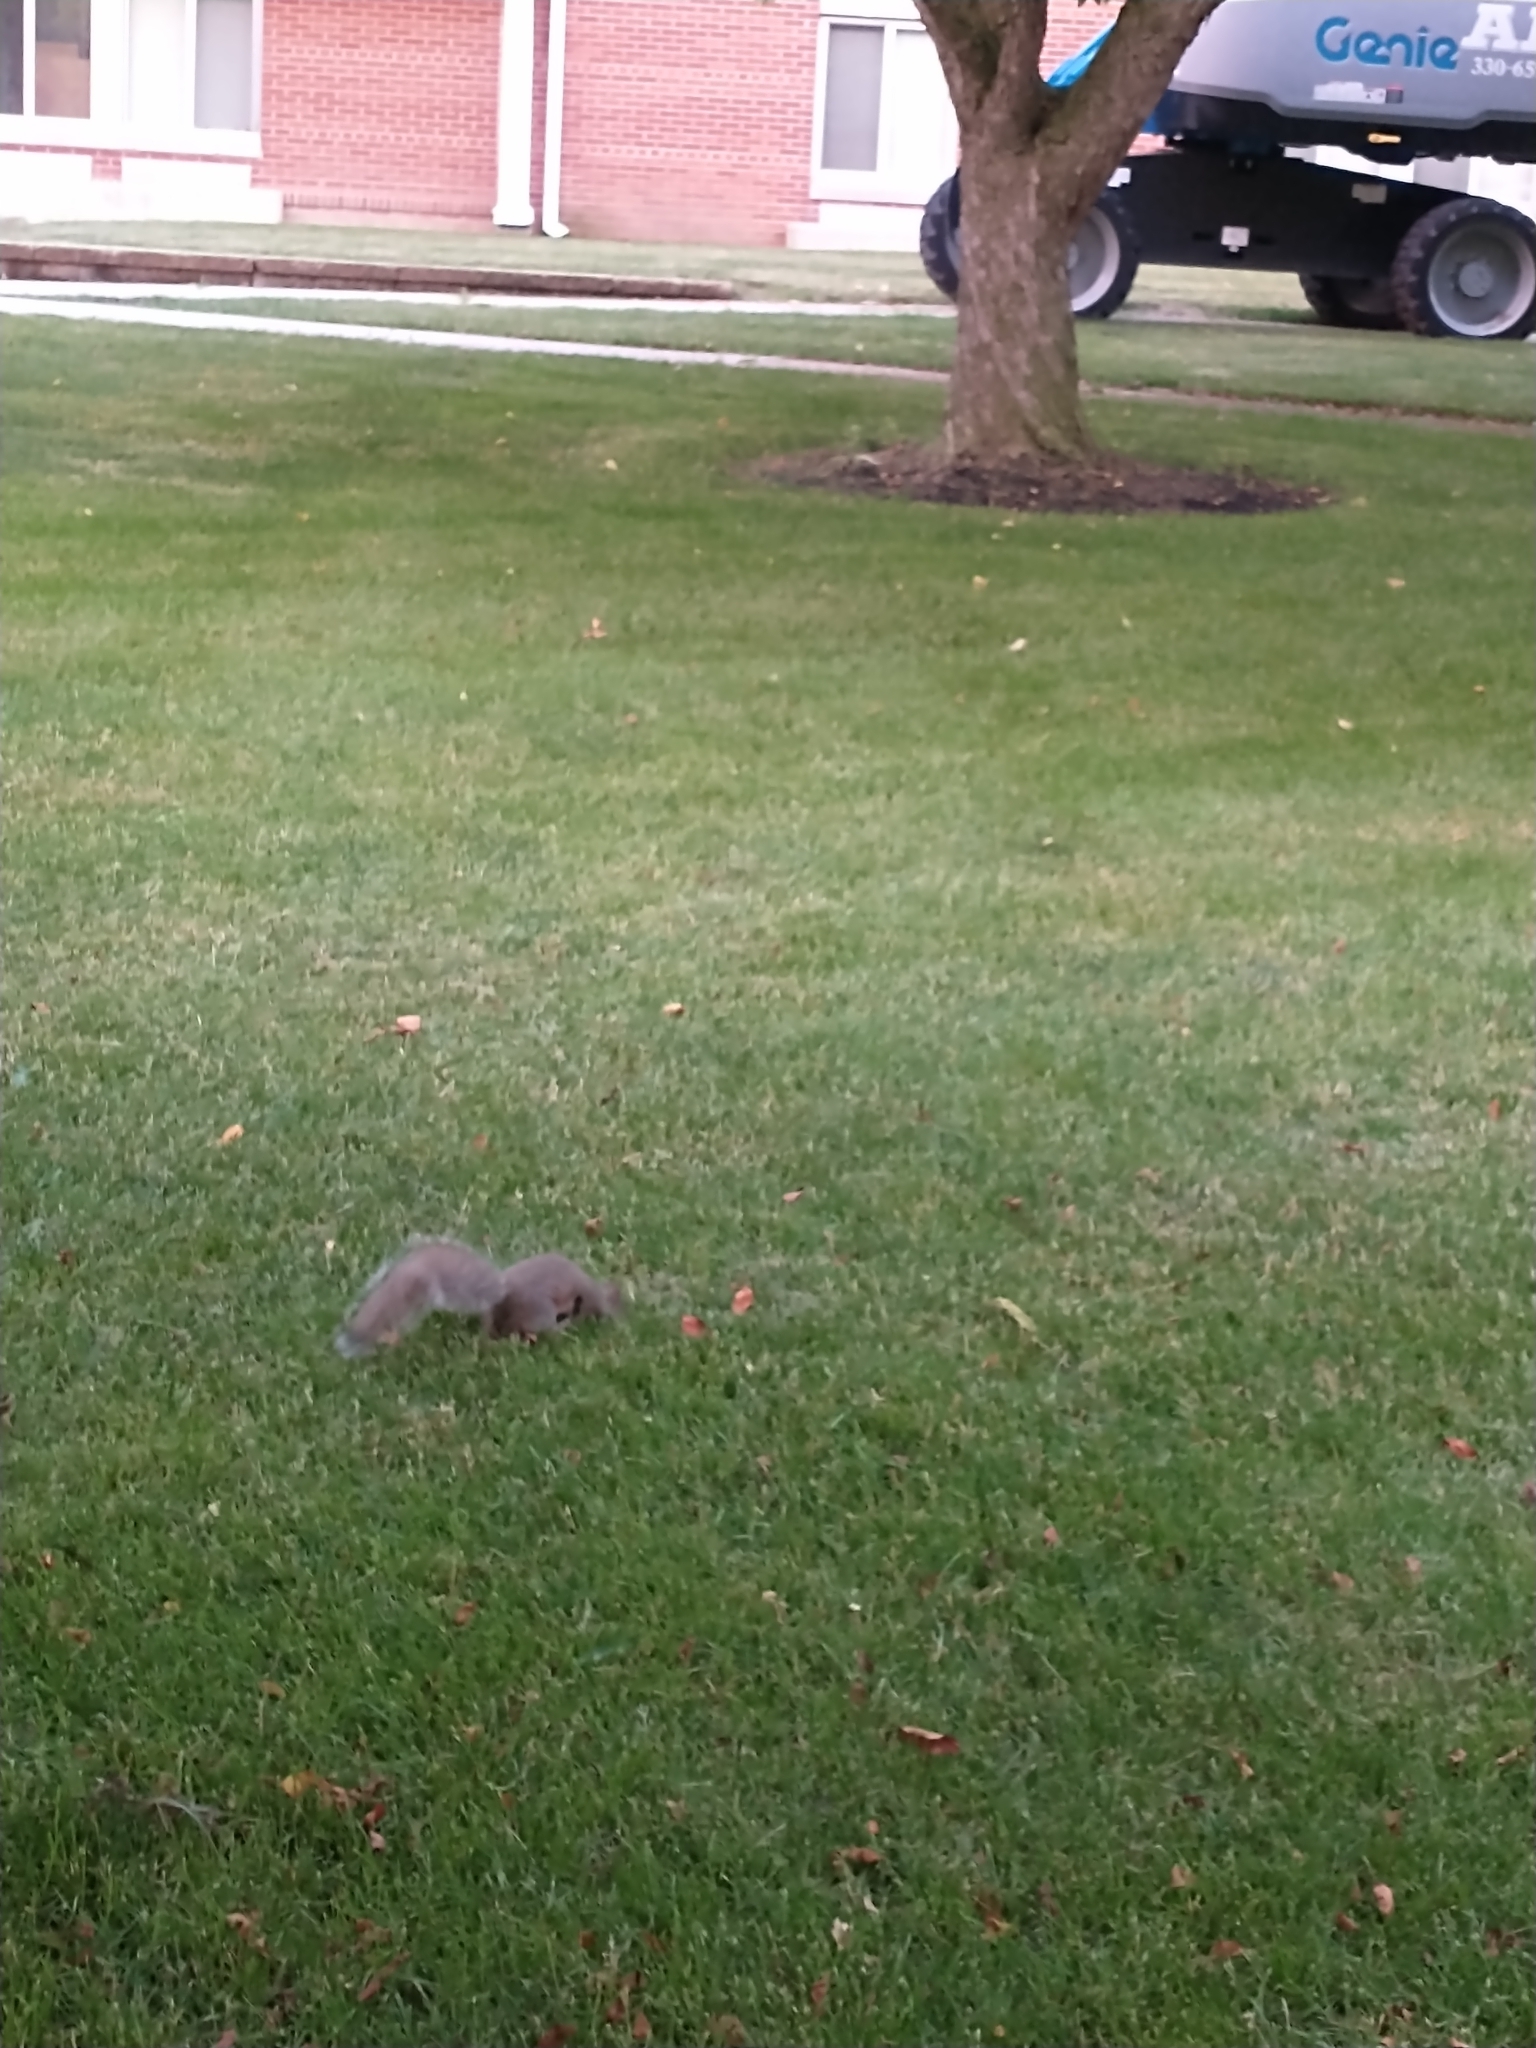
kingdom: Animalia
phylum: Chordata
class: Mammalia
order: Rodentia
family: Sciuridae
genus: Sciurus
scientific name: Sciurus carolinensis
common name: Eastern gray squirrel
